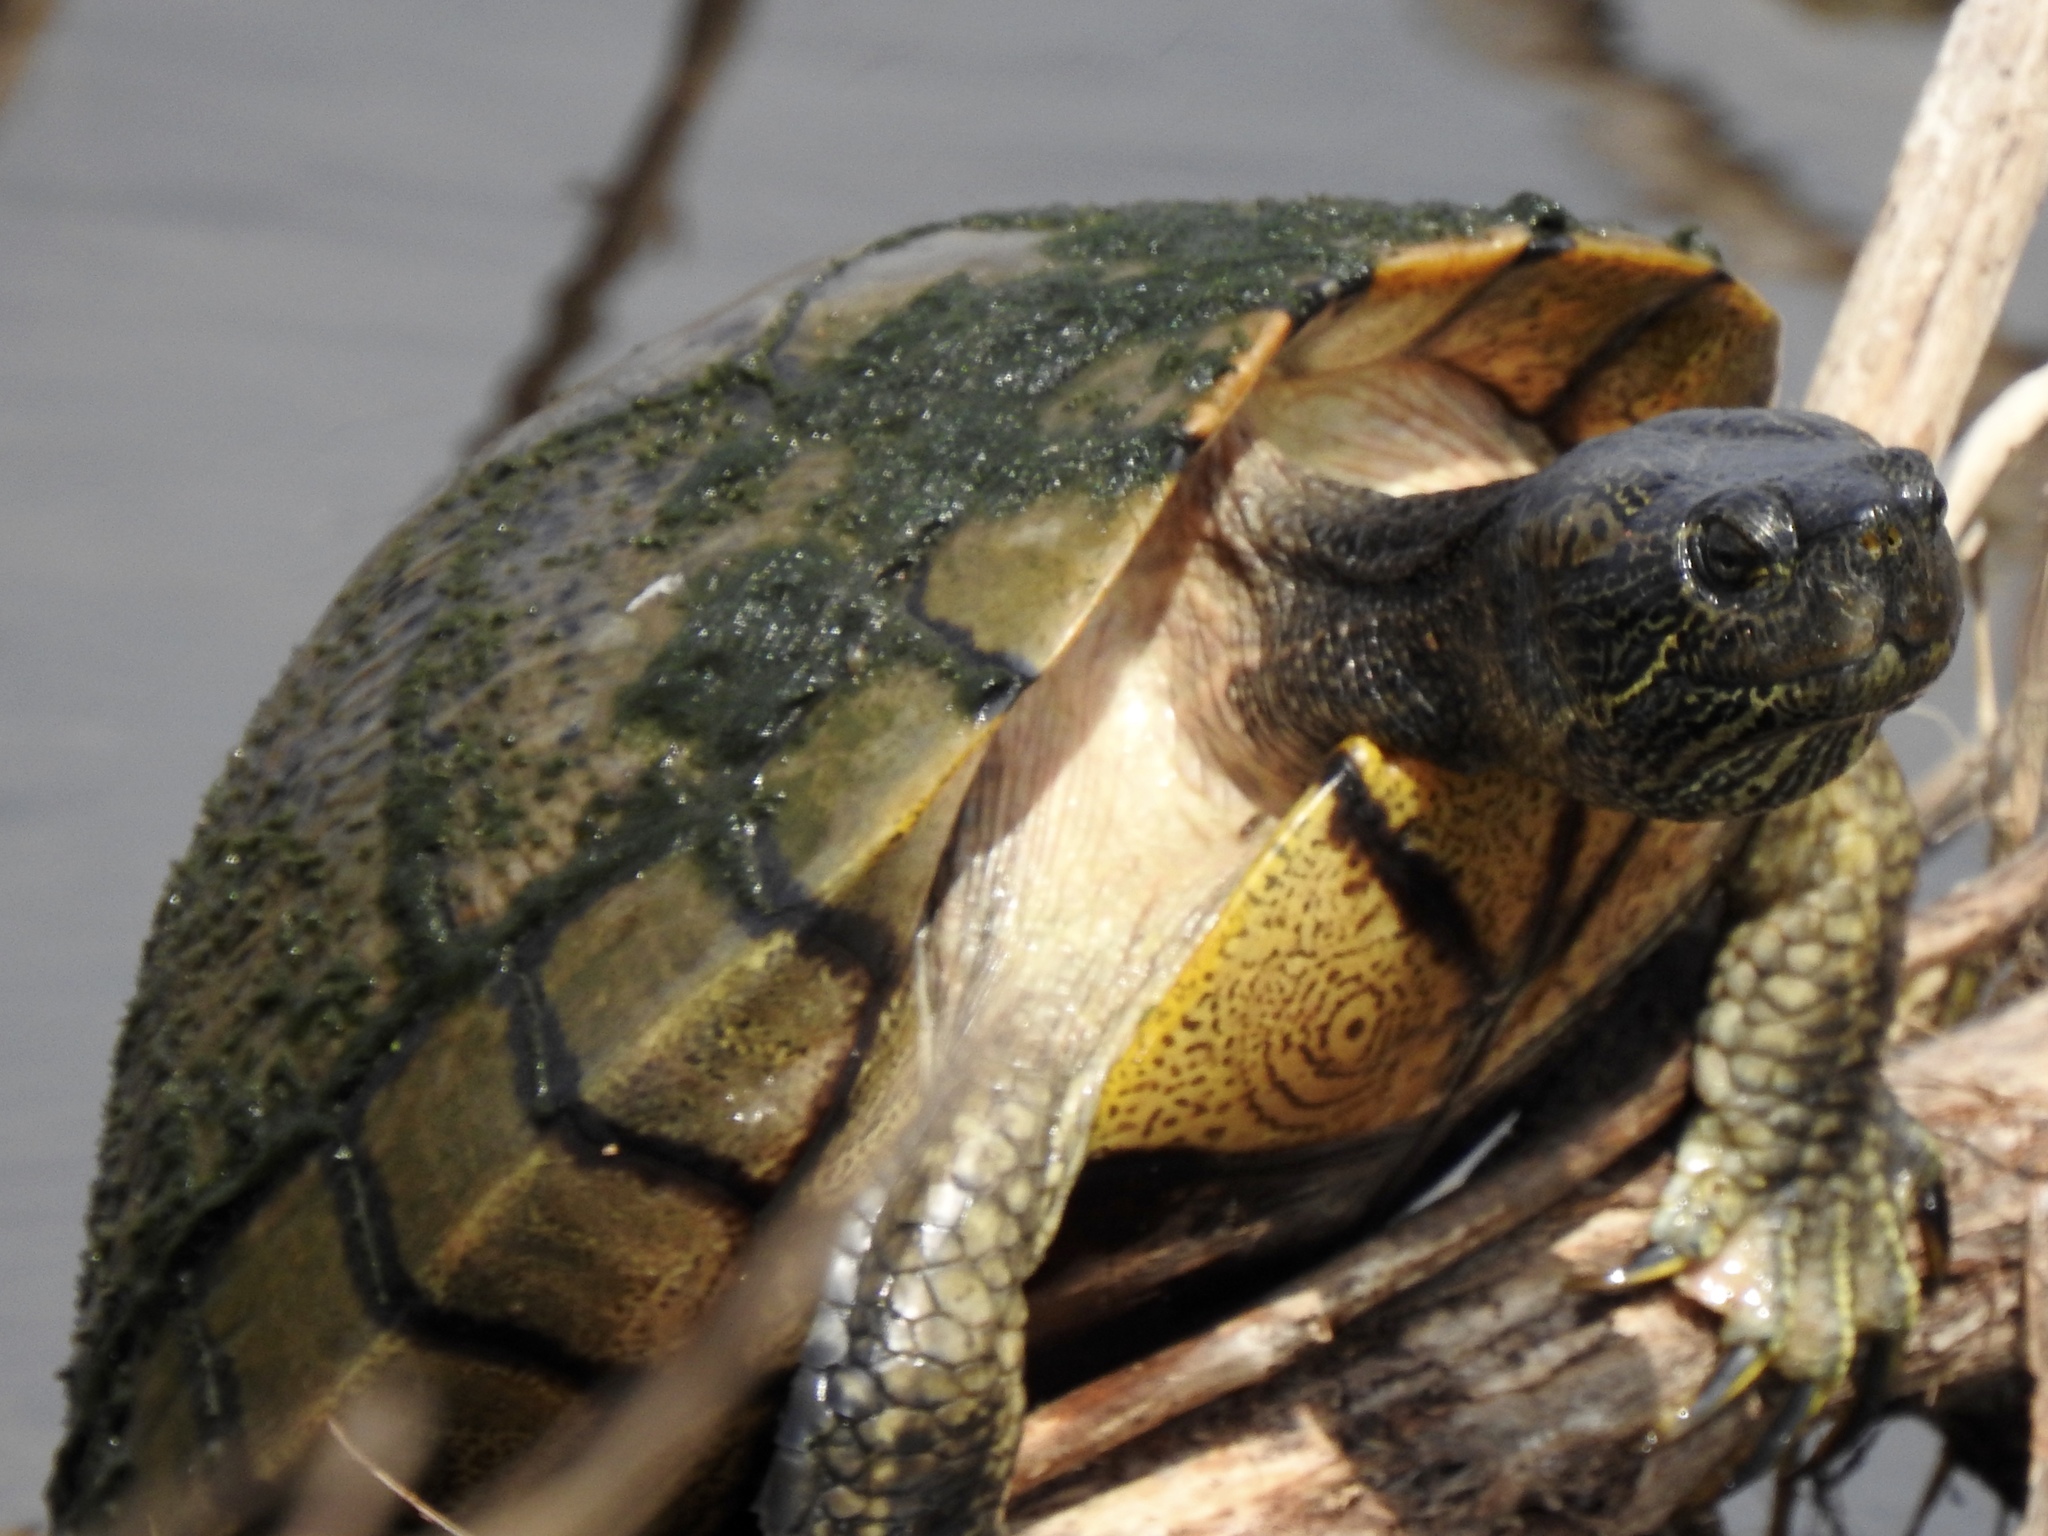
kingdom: Animalia
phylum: Chordata
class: Testudines
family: Emydidae
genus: Trachemys
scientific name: Trachemys scripta
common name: Slider
